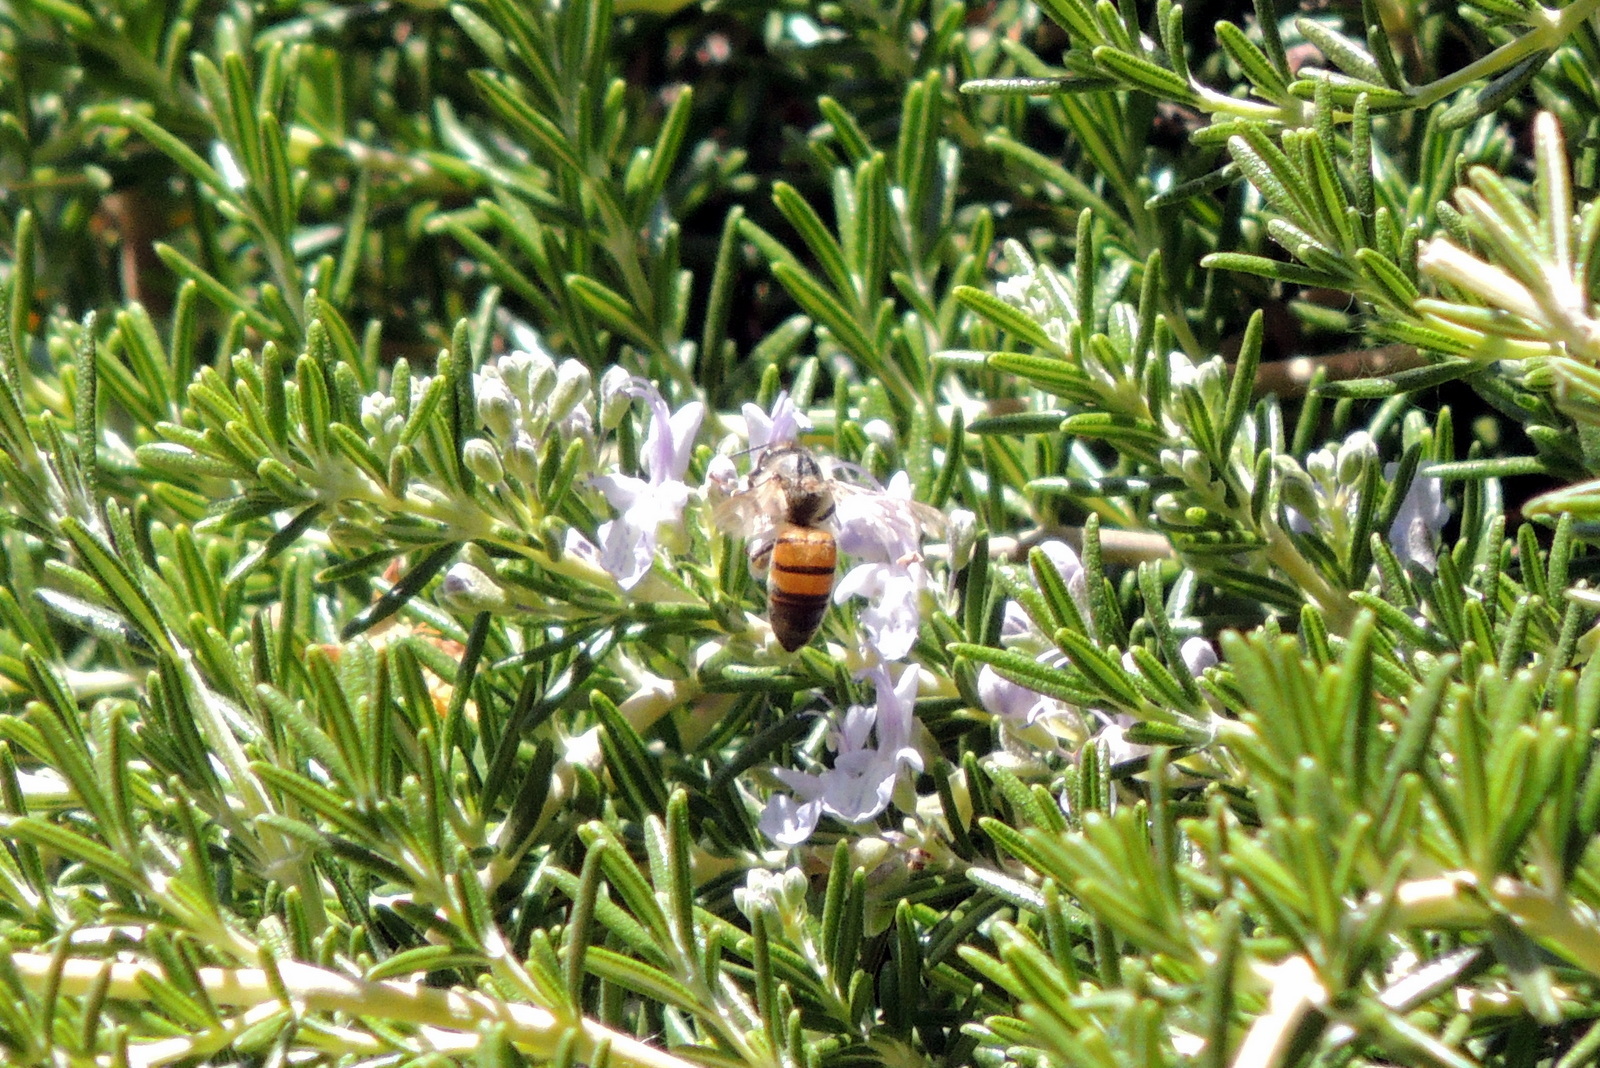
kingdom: Animalia
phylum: Arthropoda
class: Insecta
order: Hymenoptera
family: Apidae
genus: Apis
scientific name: Apis mellifera
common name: Honey bee
